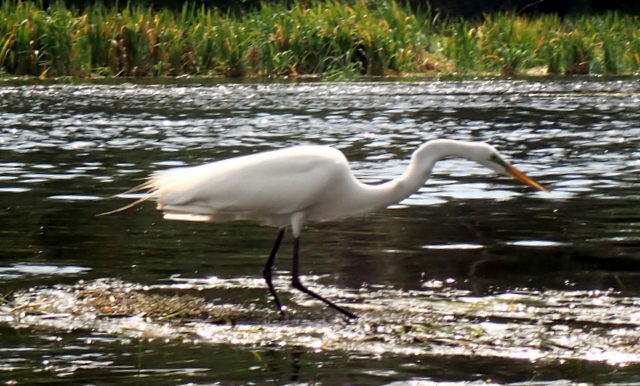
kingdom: Animalia
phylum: Chordata
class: Aves
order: Pelecaniformes
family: Ardeidae
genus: Ardea
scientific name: Ardea alba
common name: Great egret
